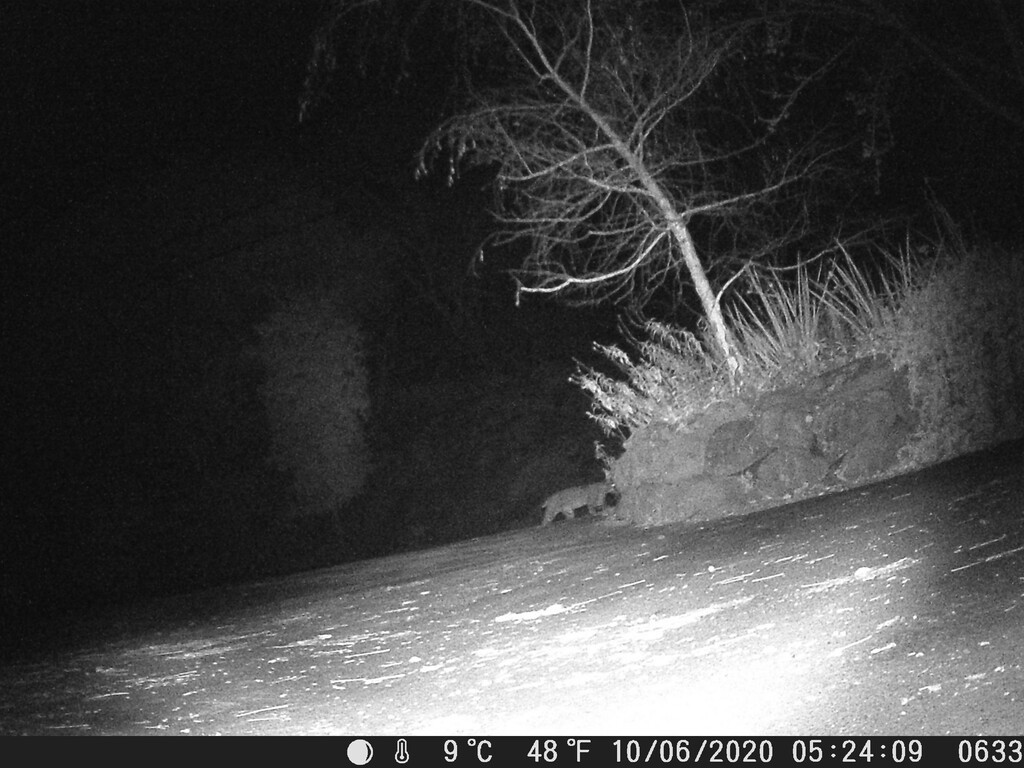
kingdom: Animalia
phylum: Chordata
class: Mammalia
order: Carnivora
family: Felidae
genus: Lynx
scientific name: Lynx rufus
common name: Bobcat
